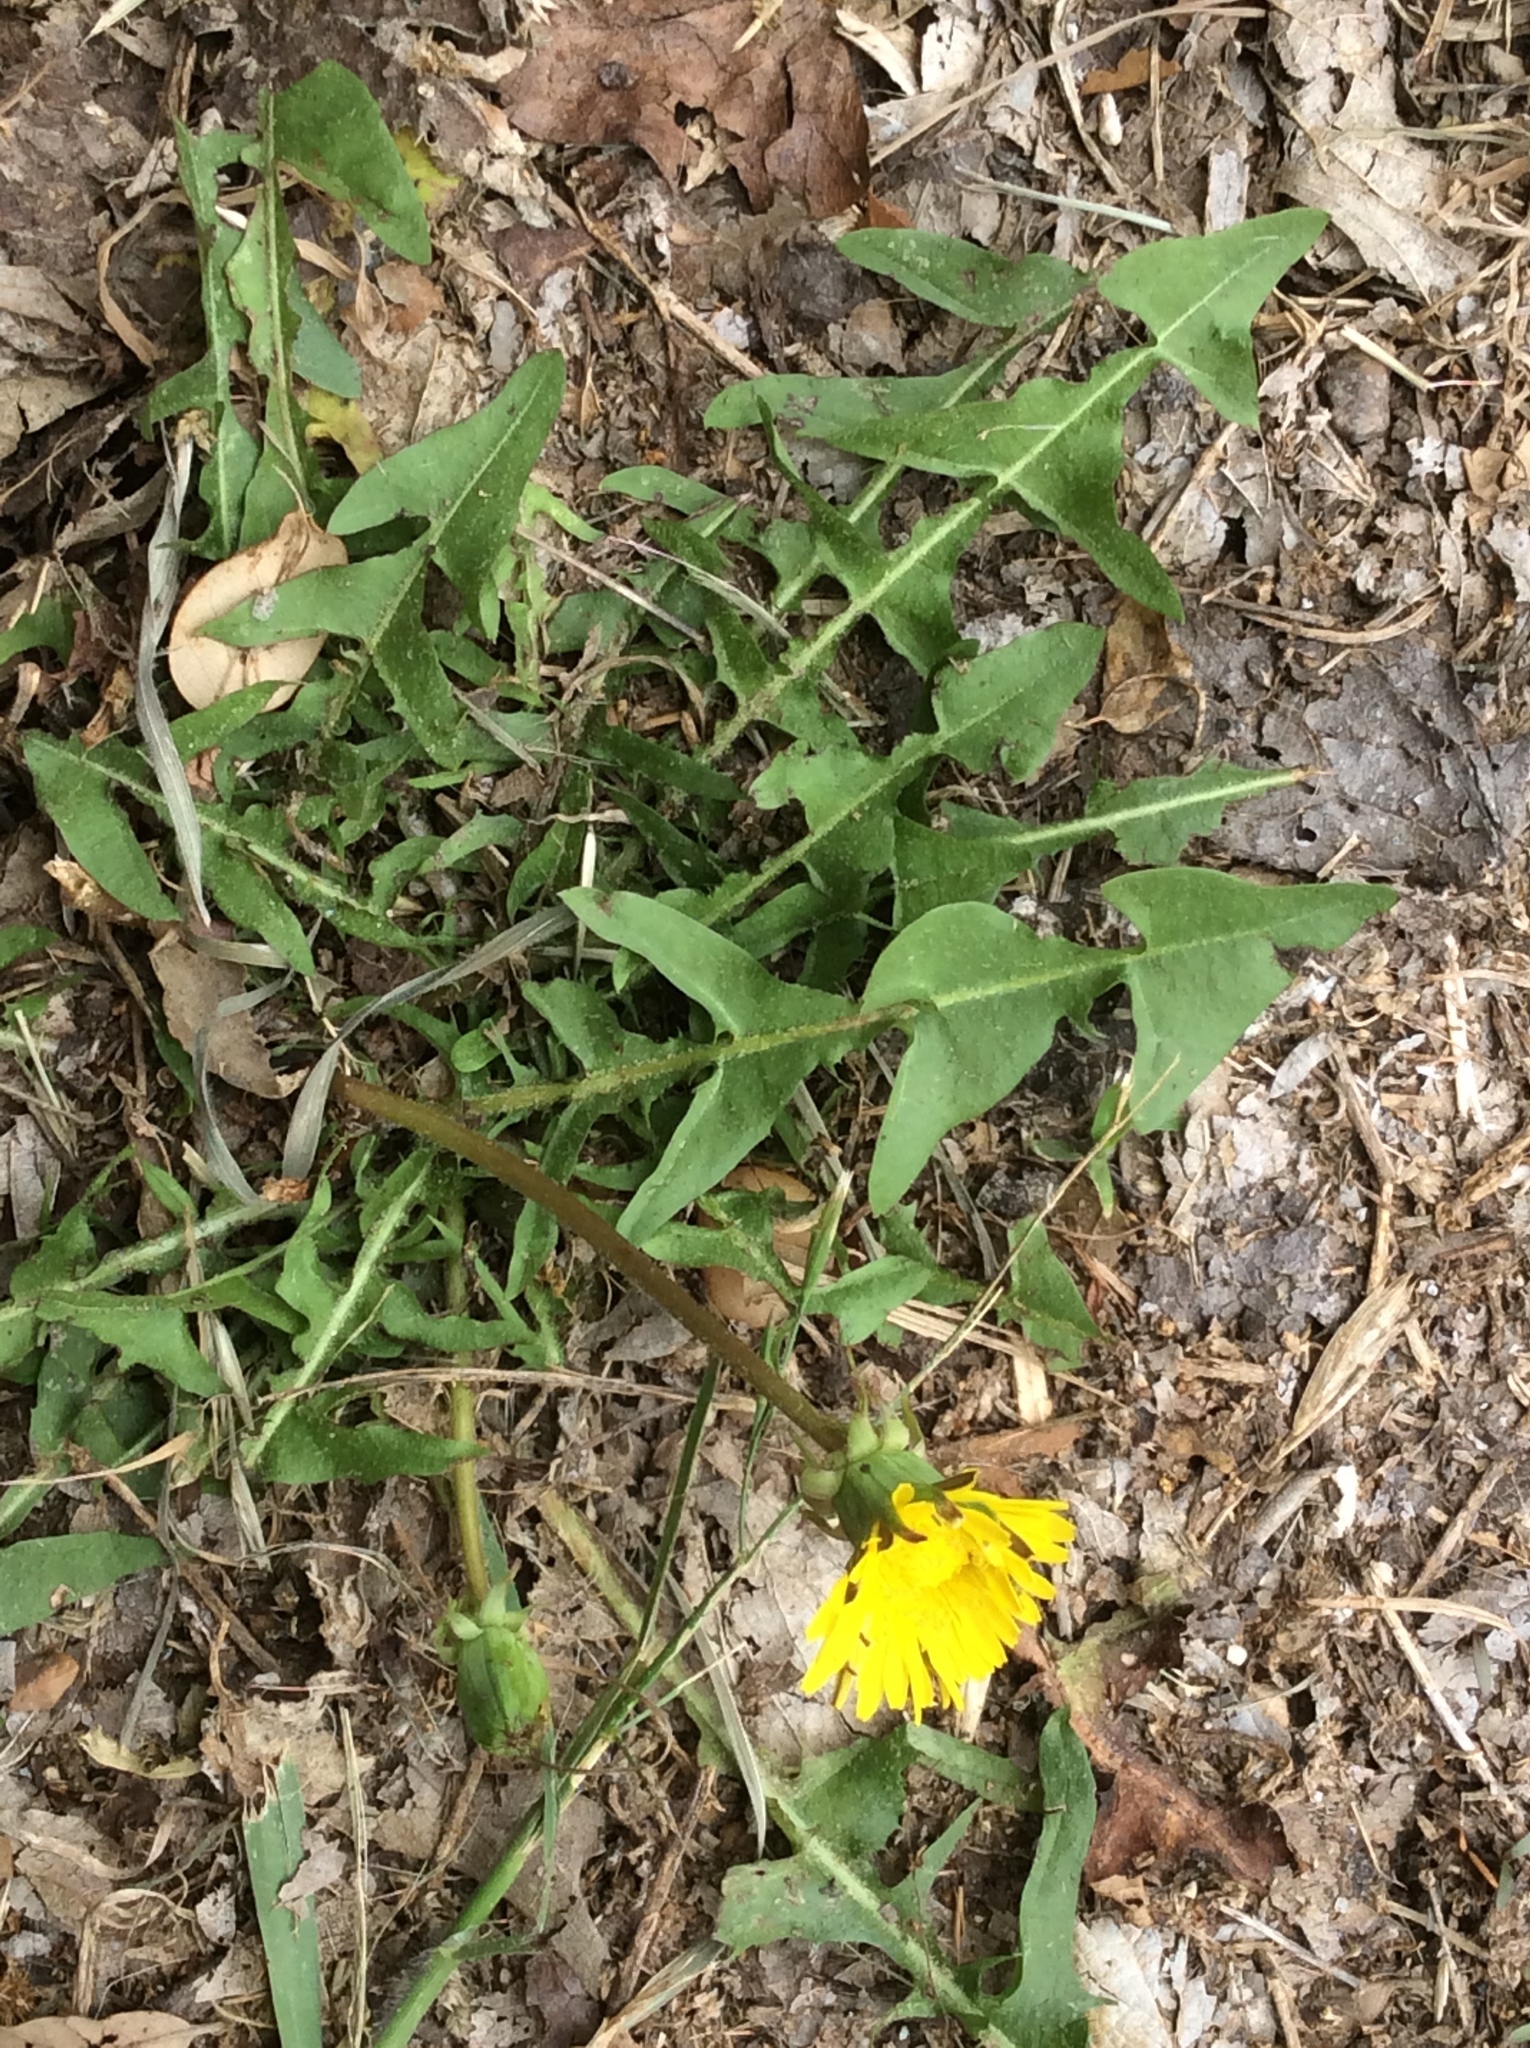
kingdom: Plantae
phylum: Tracheophyta
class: Magnoliopsida
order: Asterales
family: Asteraceae
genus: Taraxacum
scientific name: Taraxacum officinale
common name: Common dandelion
